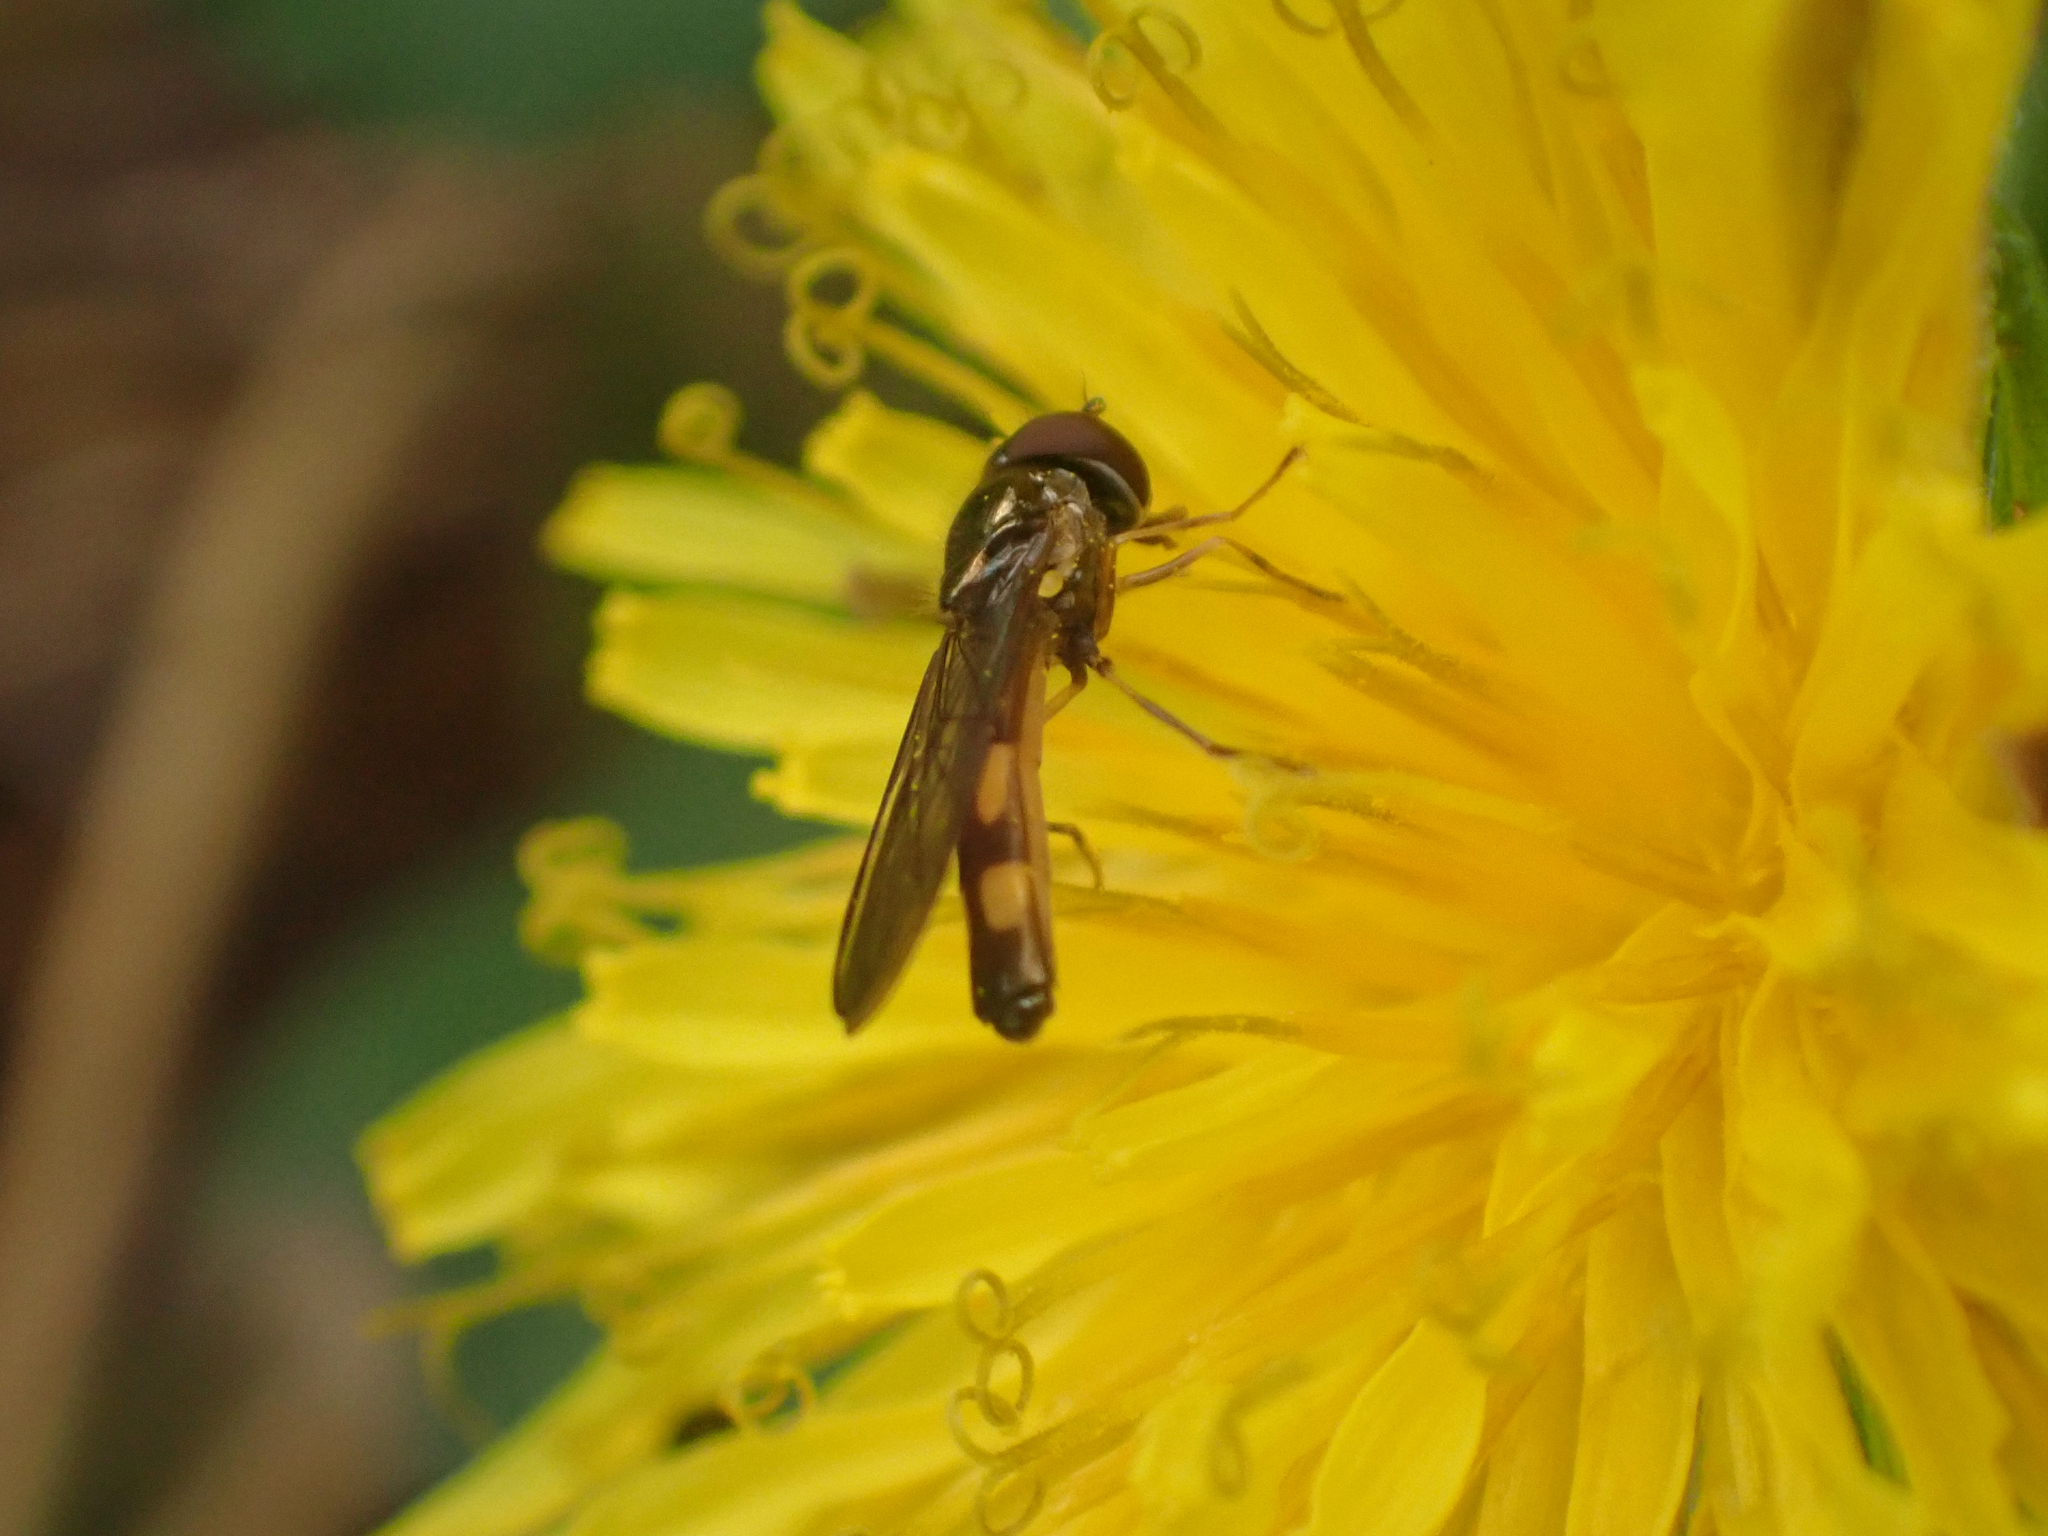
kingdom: Animalia
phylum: Arthropoda
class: Insecta
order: Diptera
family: Syrphidae
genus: Melanostoma
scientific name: Melanostoma mellina
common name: Hover fly
